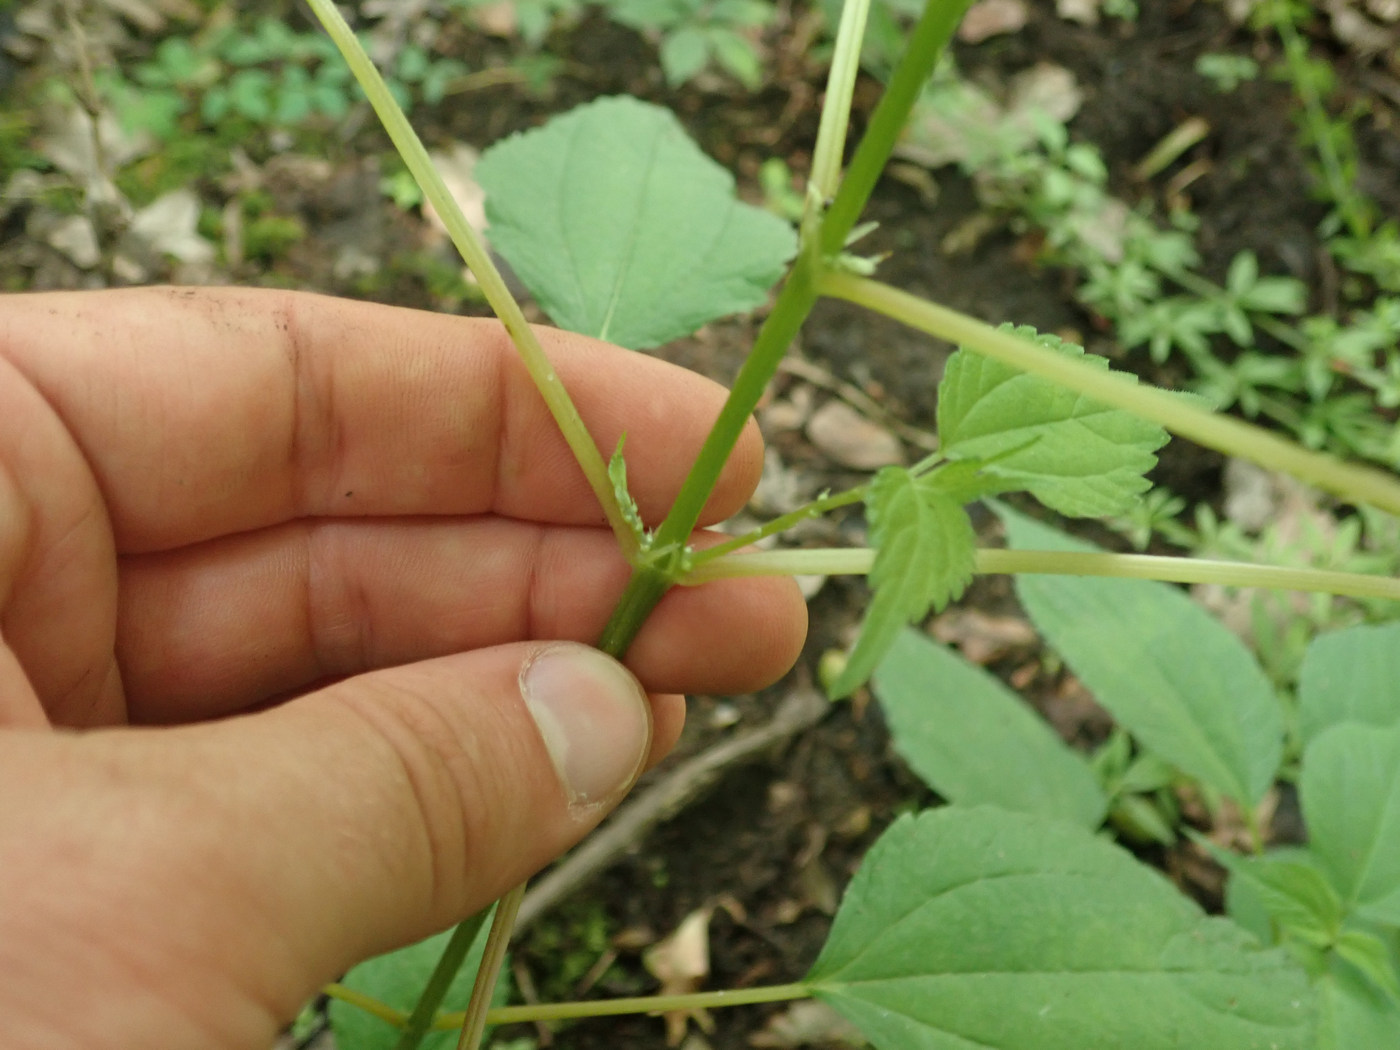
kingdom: Plantae
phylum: Tracheophyta
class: Magnoliopsida
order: Rosales
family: Urticaceae
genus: Boehmeria
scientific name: Boehmeria cylindrica
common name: Bog-hemp
